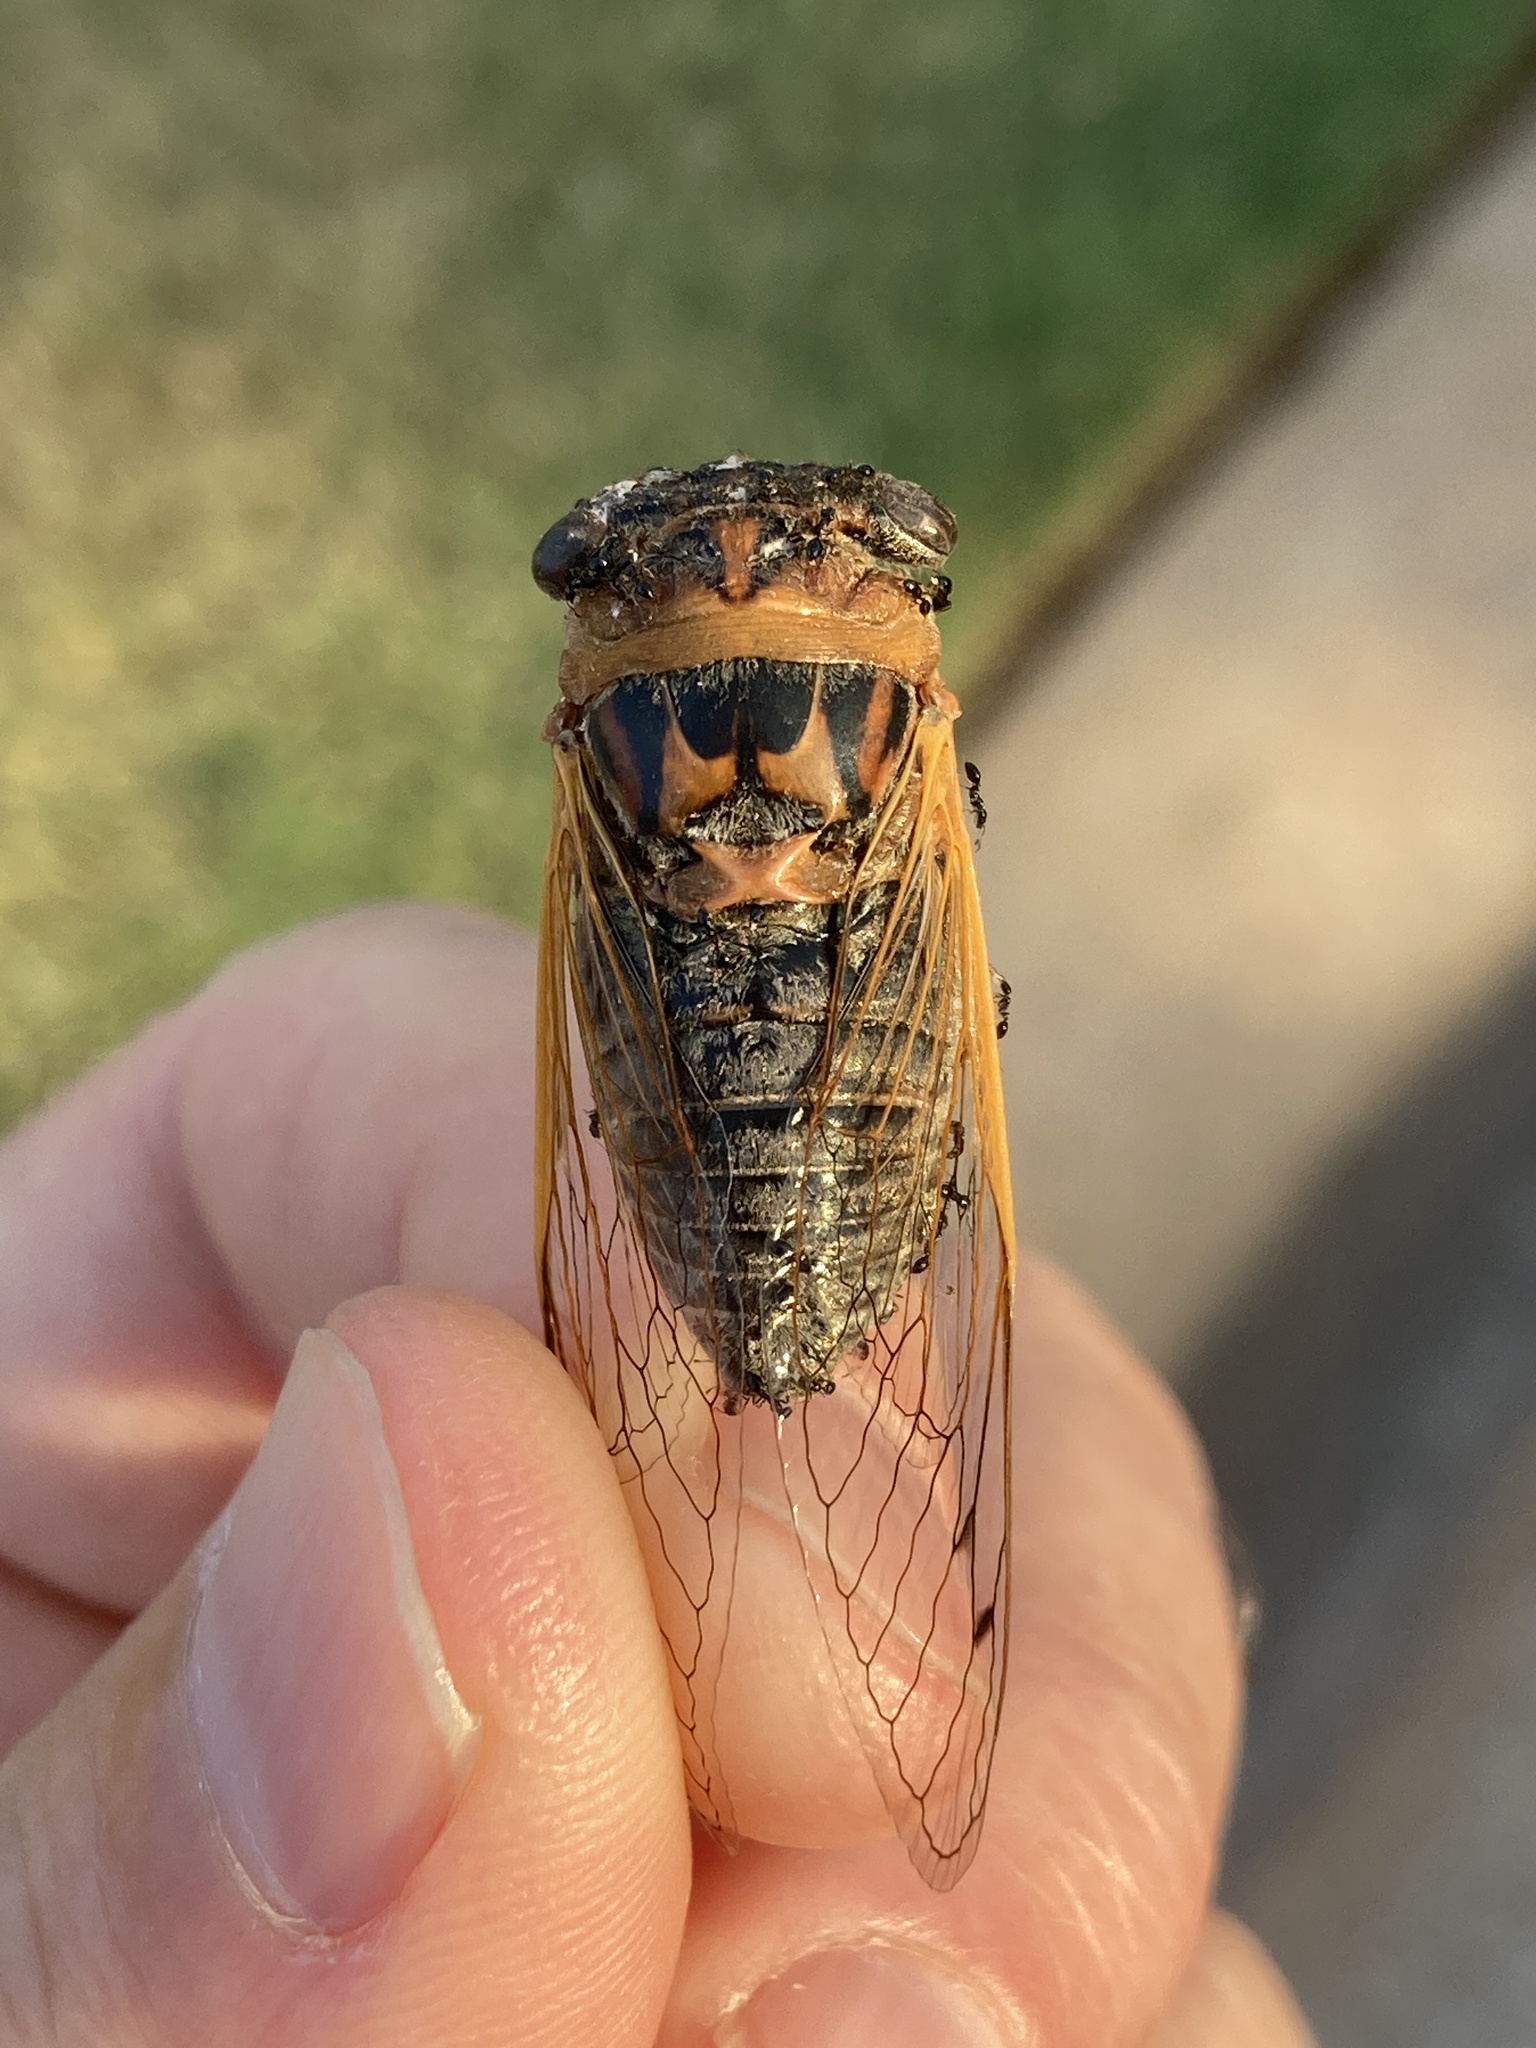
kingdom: Animalia
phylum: Arthropoda
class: Insecta
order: Hemiptera
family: Cicadidae
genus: Neotibicen
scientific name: Neotibicen aurifer
